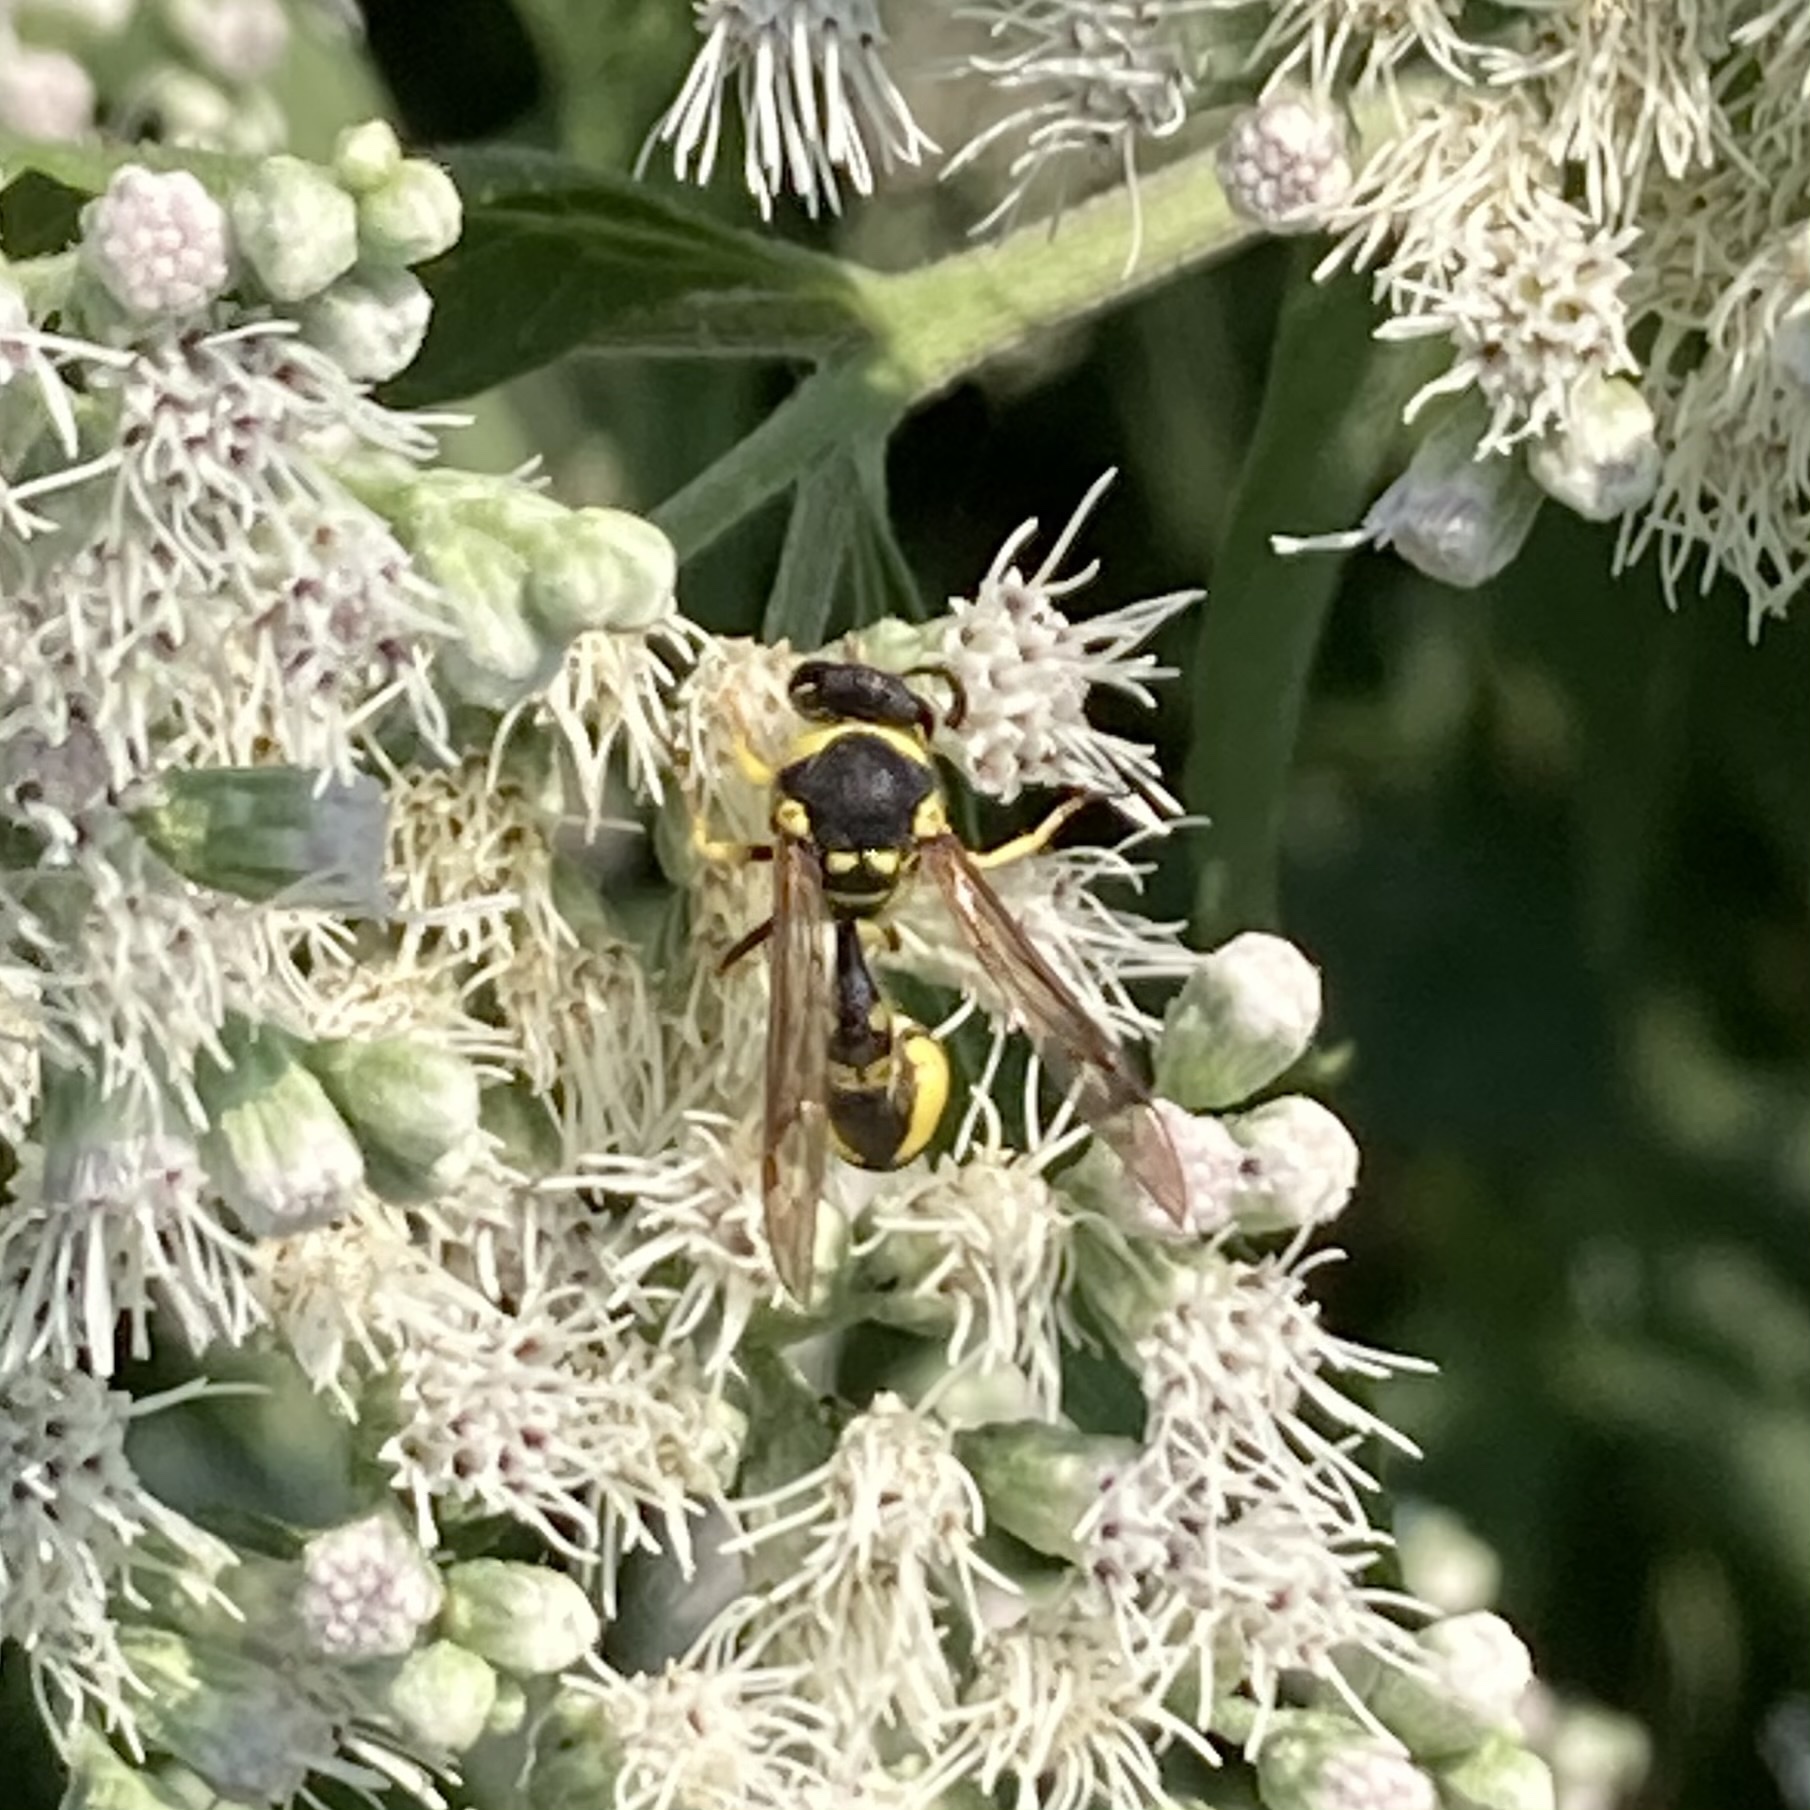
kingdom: Animalia
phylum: Arthropoda
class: Insecta
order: Hymenoptera
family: Vespidae
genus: Eumenes
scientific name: Eumenes mediterraneus
